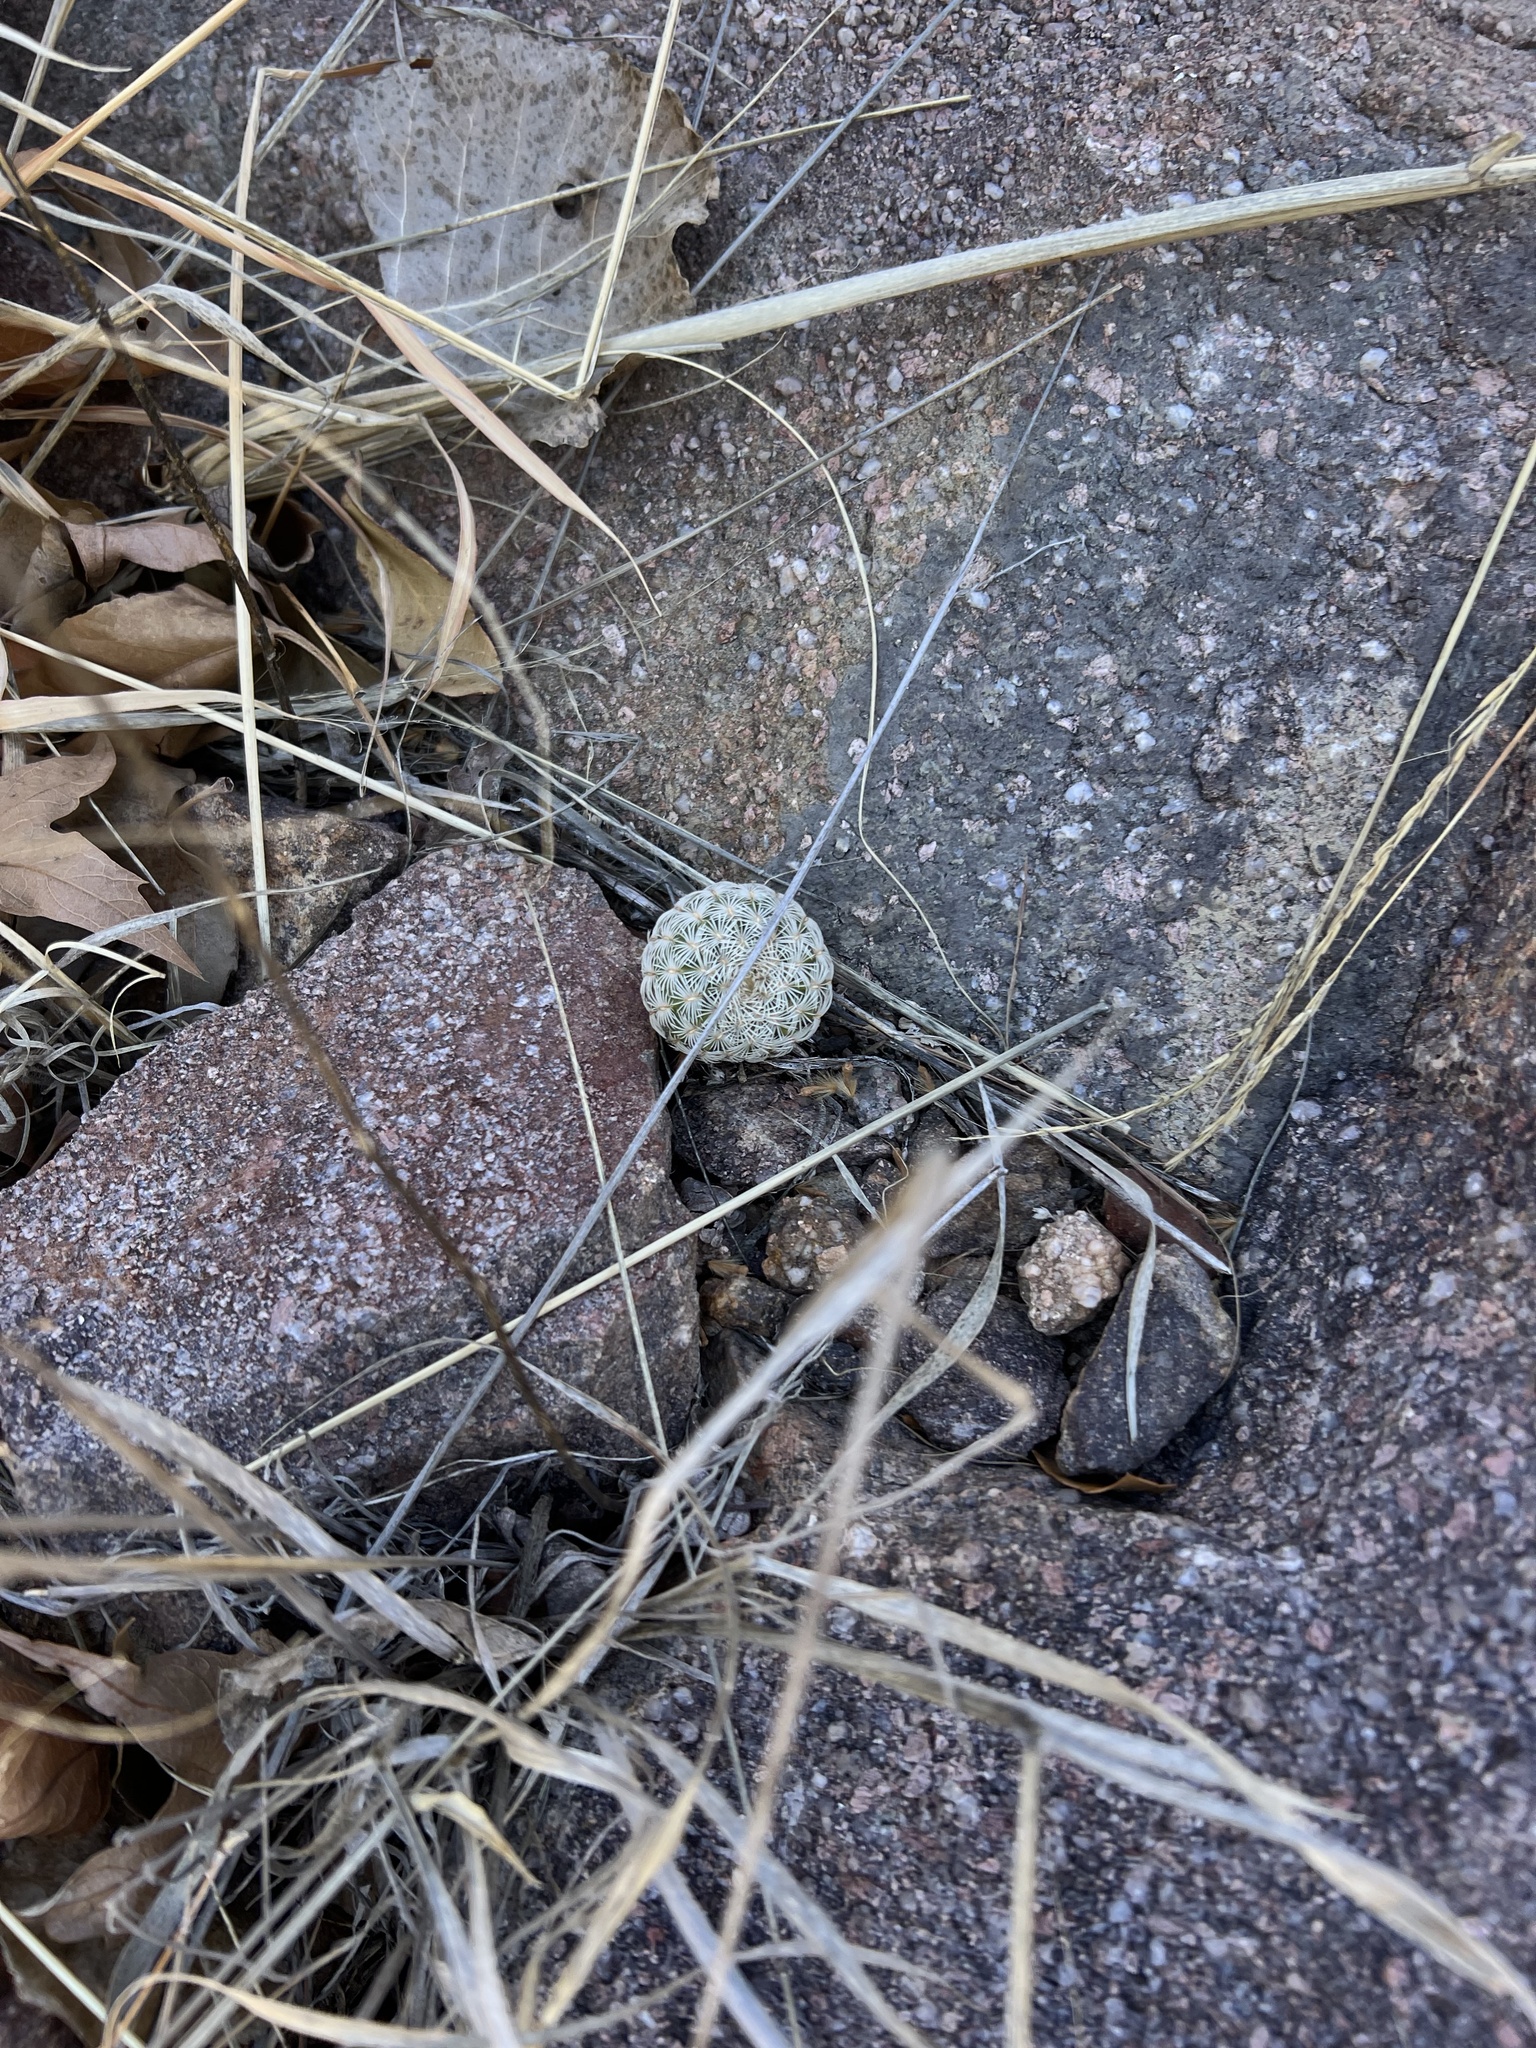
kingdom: Plantae
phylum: Tracheophyta
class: Magnoliopsida
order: Caryophyllales
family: Cactaceae
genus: Echinocereus
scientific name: Echinocereus rigidissimus
